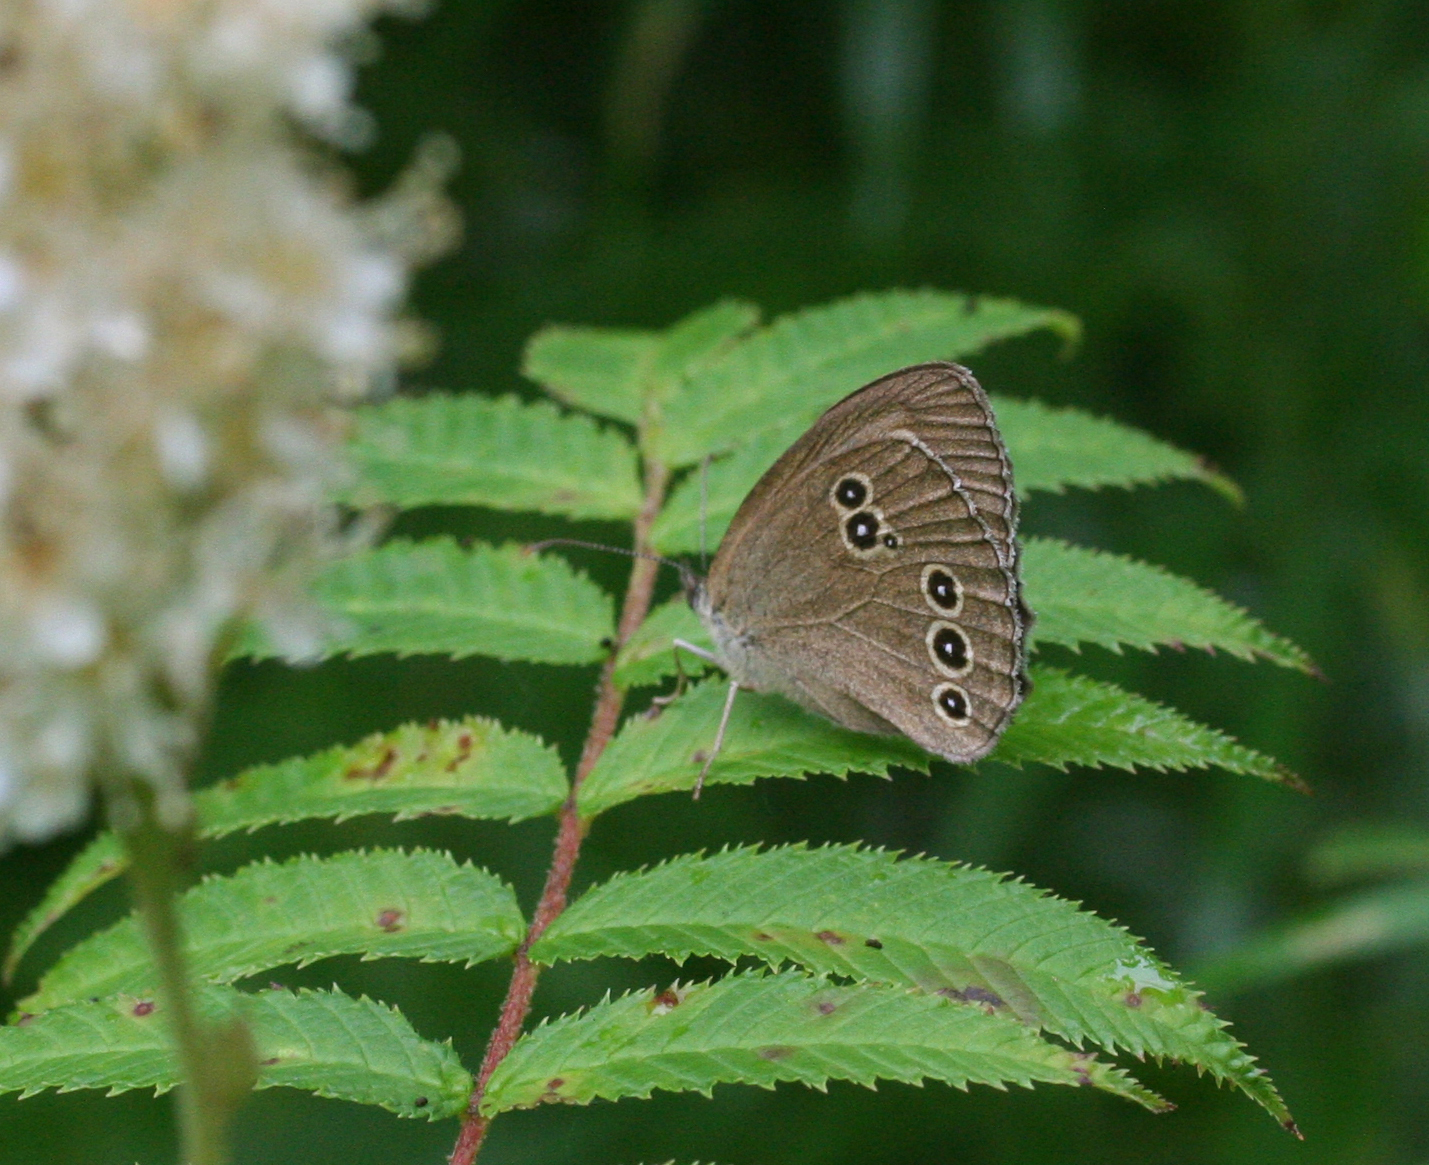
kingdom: Animalia
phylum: Arthropoda
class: Insecta
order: Lepidoptera
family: Nymphalidae
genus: Aphantopus
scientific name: Aphantopus hyperantus
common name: Ringlet
